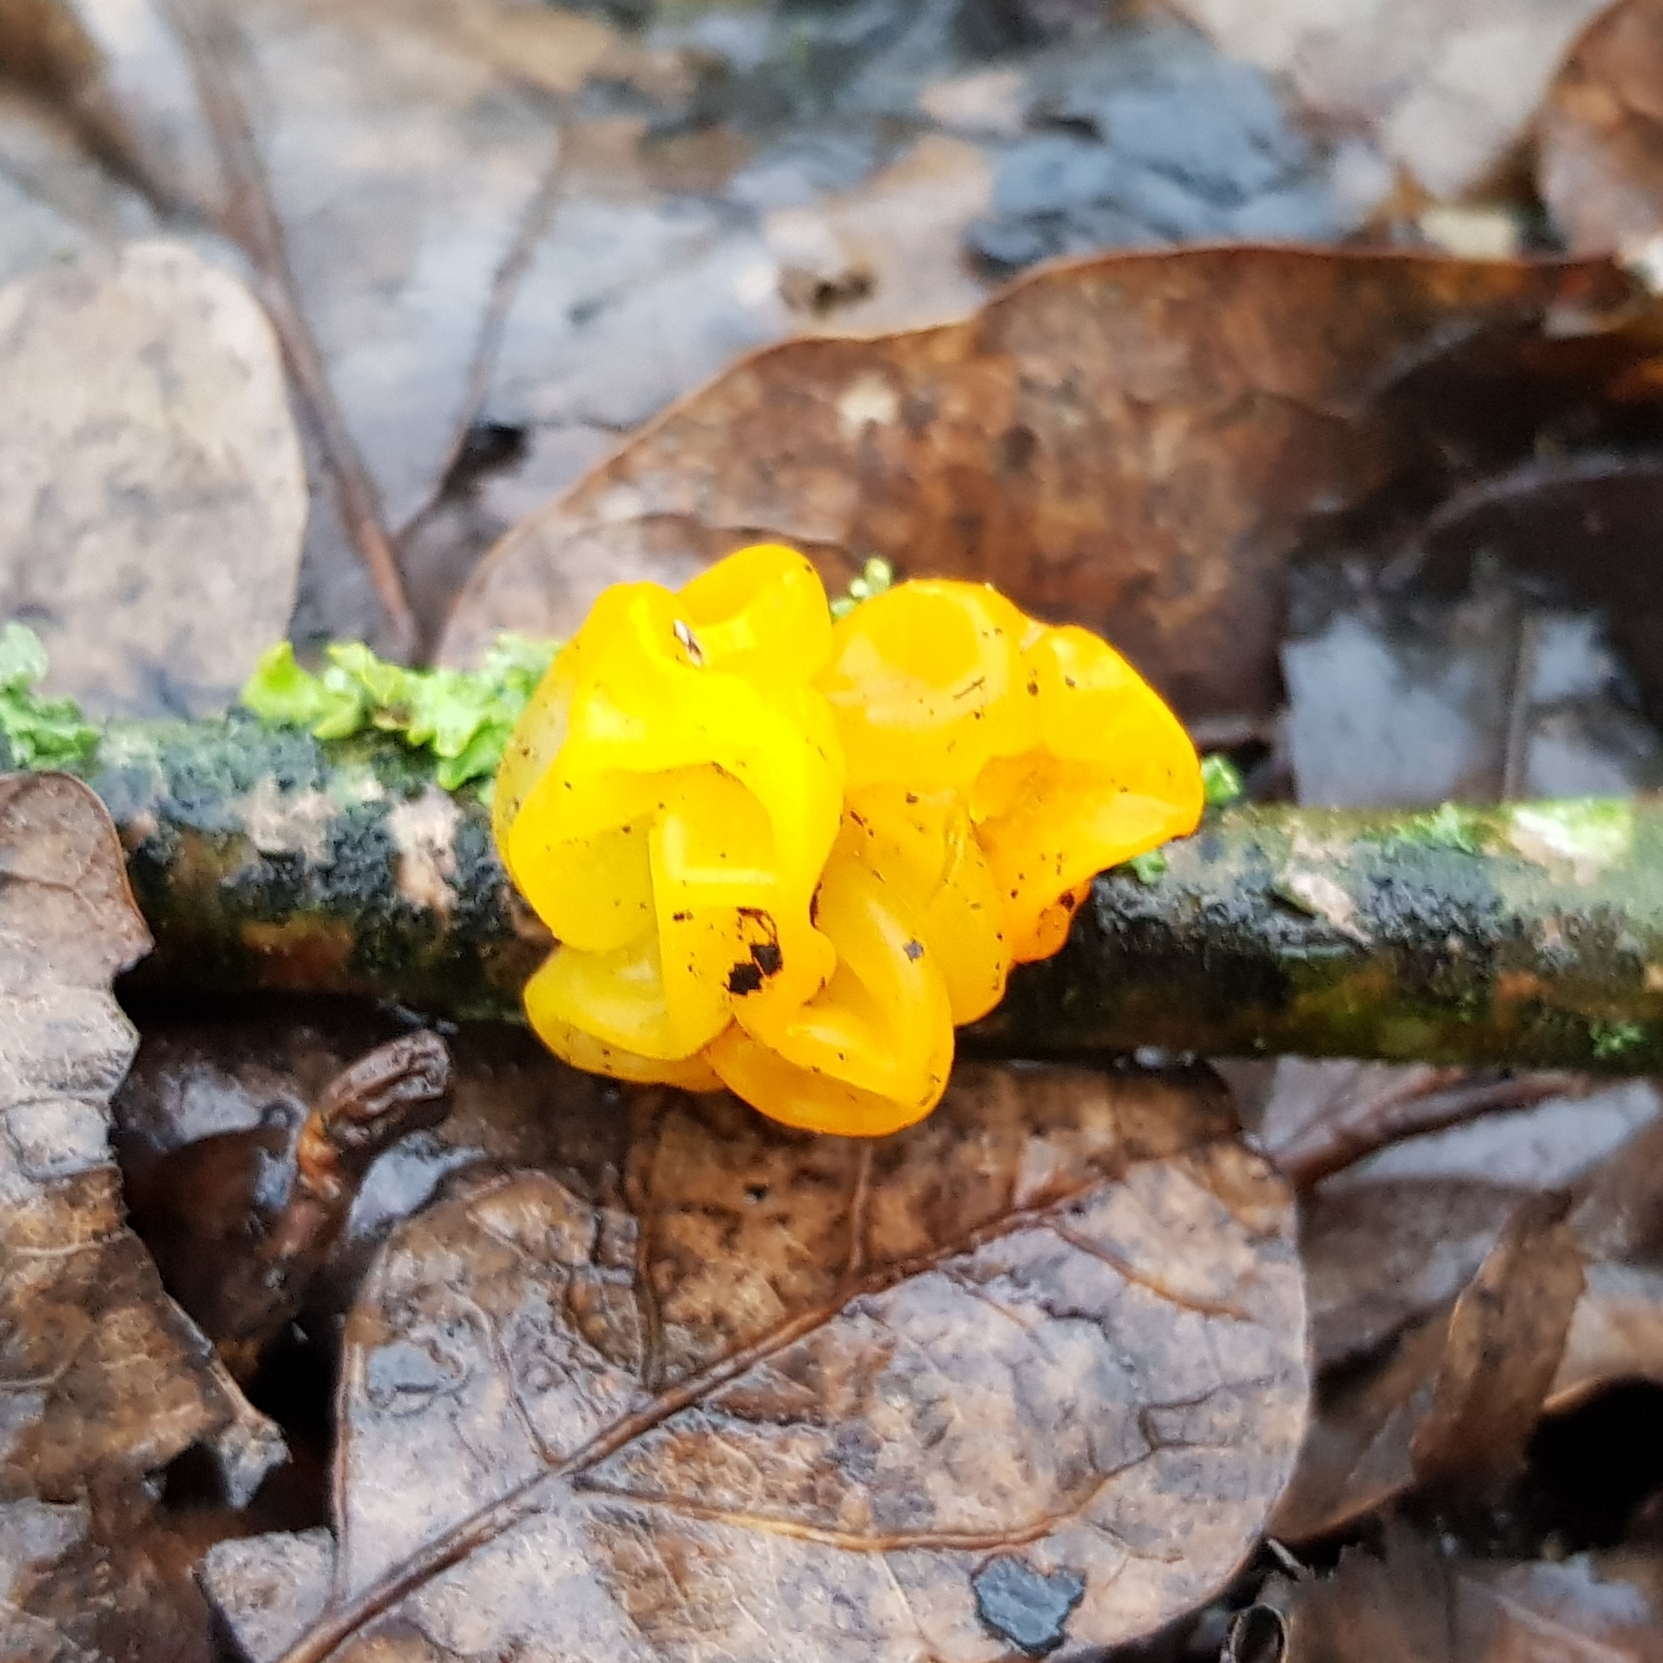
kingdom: Fungi
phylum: Basidiomycota
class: Tremellomycetes
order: Tremellales
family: Tremellaceae
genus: Tremella
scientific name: Tremella mesenterica
